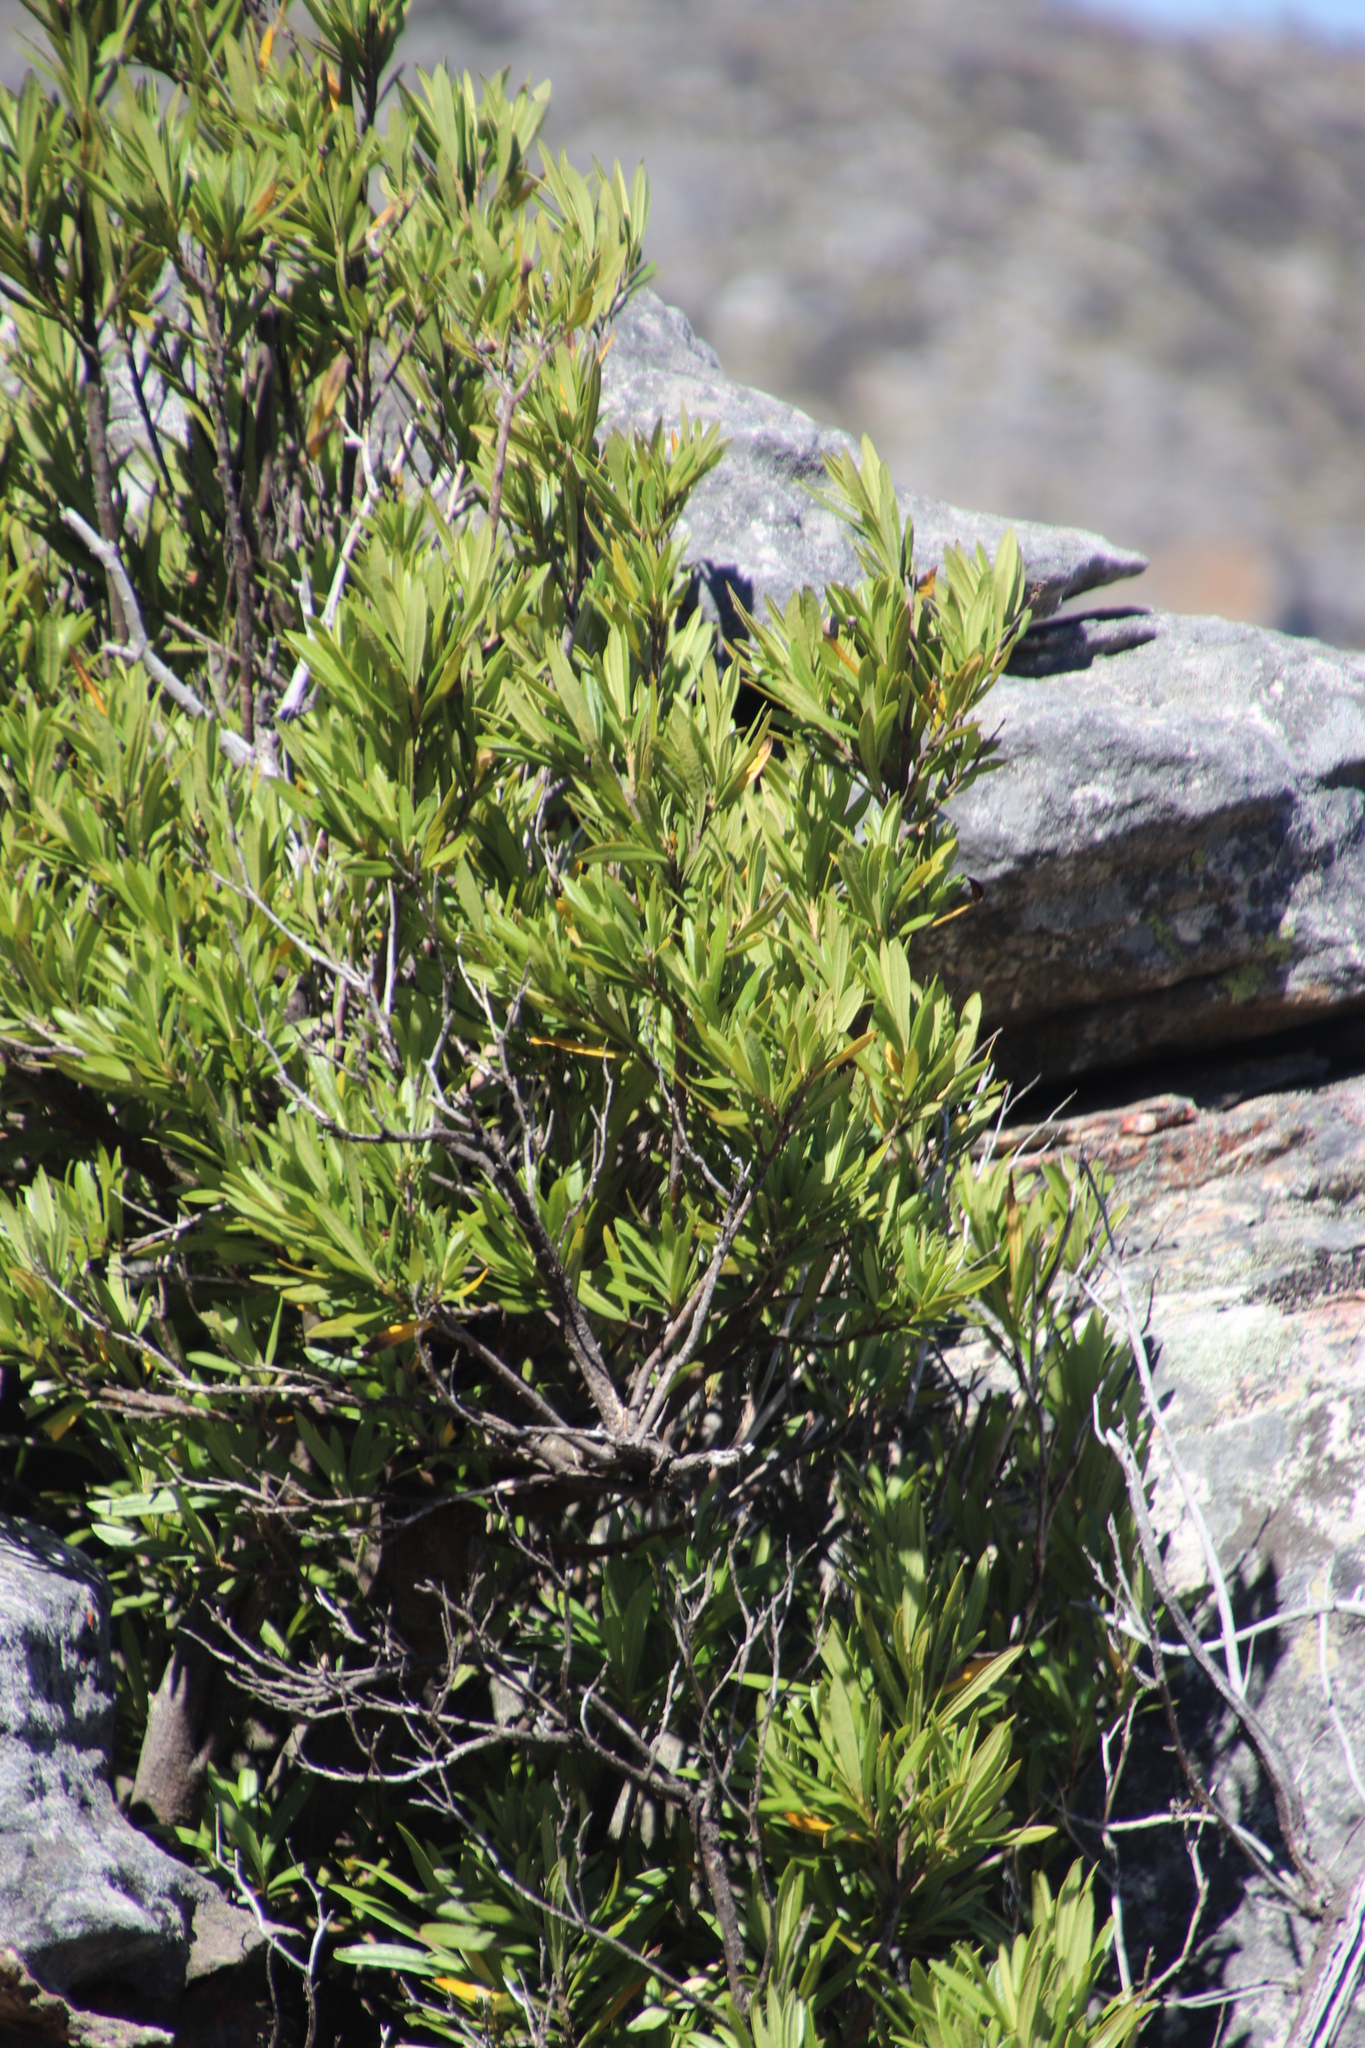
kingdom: Plantae
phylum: Tracheophyta
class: Magnoliopsida
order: Sapindales
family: Anacardiaceae
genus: Searsia
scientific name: Searsia angustifolia
